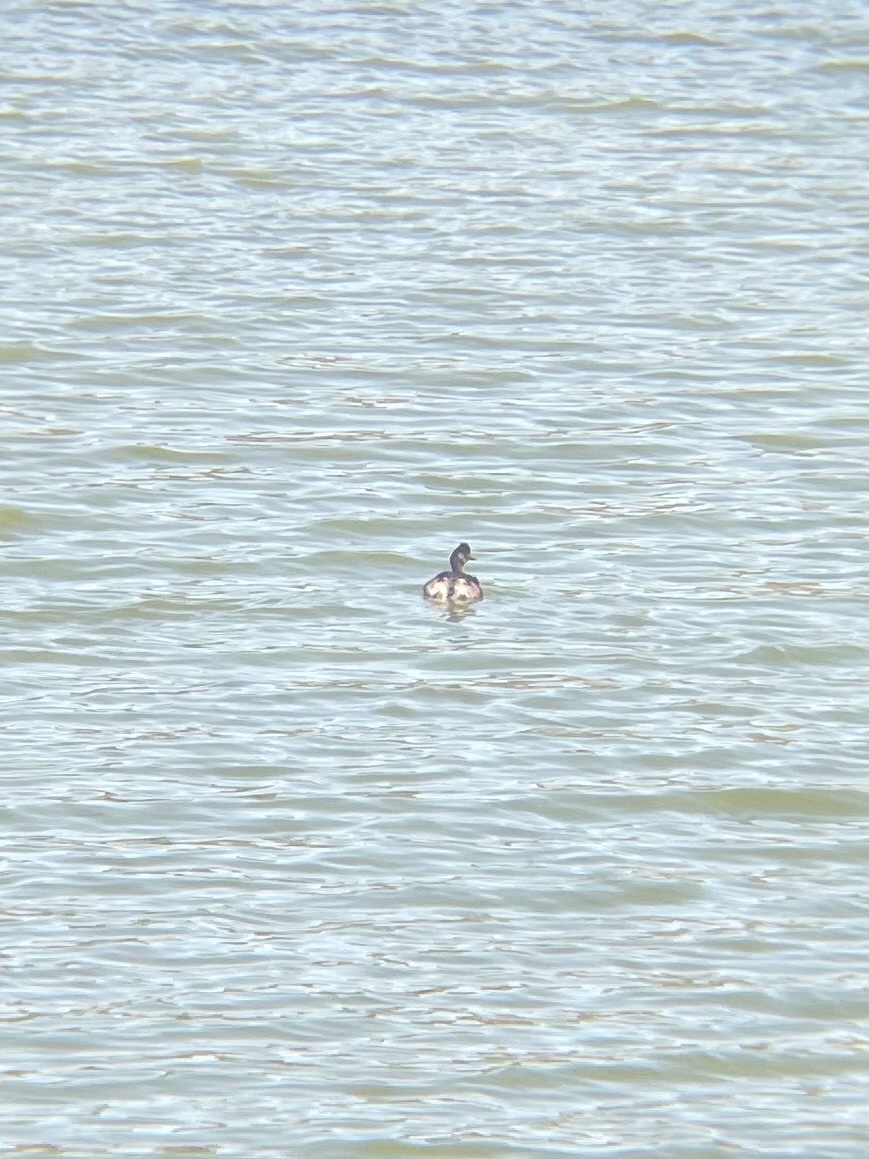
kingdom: Animalia
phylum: Chordata
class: Aves
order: Podicipediformes
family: Podicipedidae
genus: Podiceps
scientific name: Podiceps nigricollis
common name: Black-necked grebe
